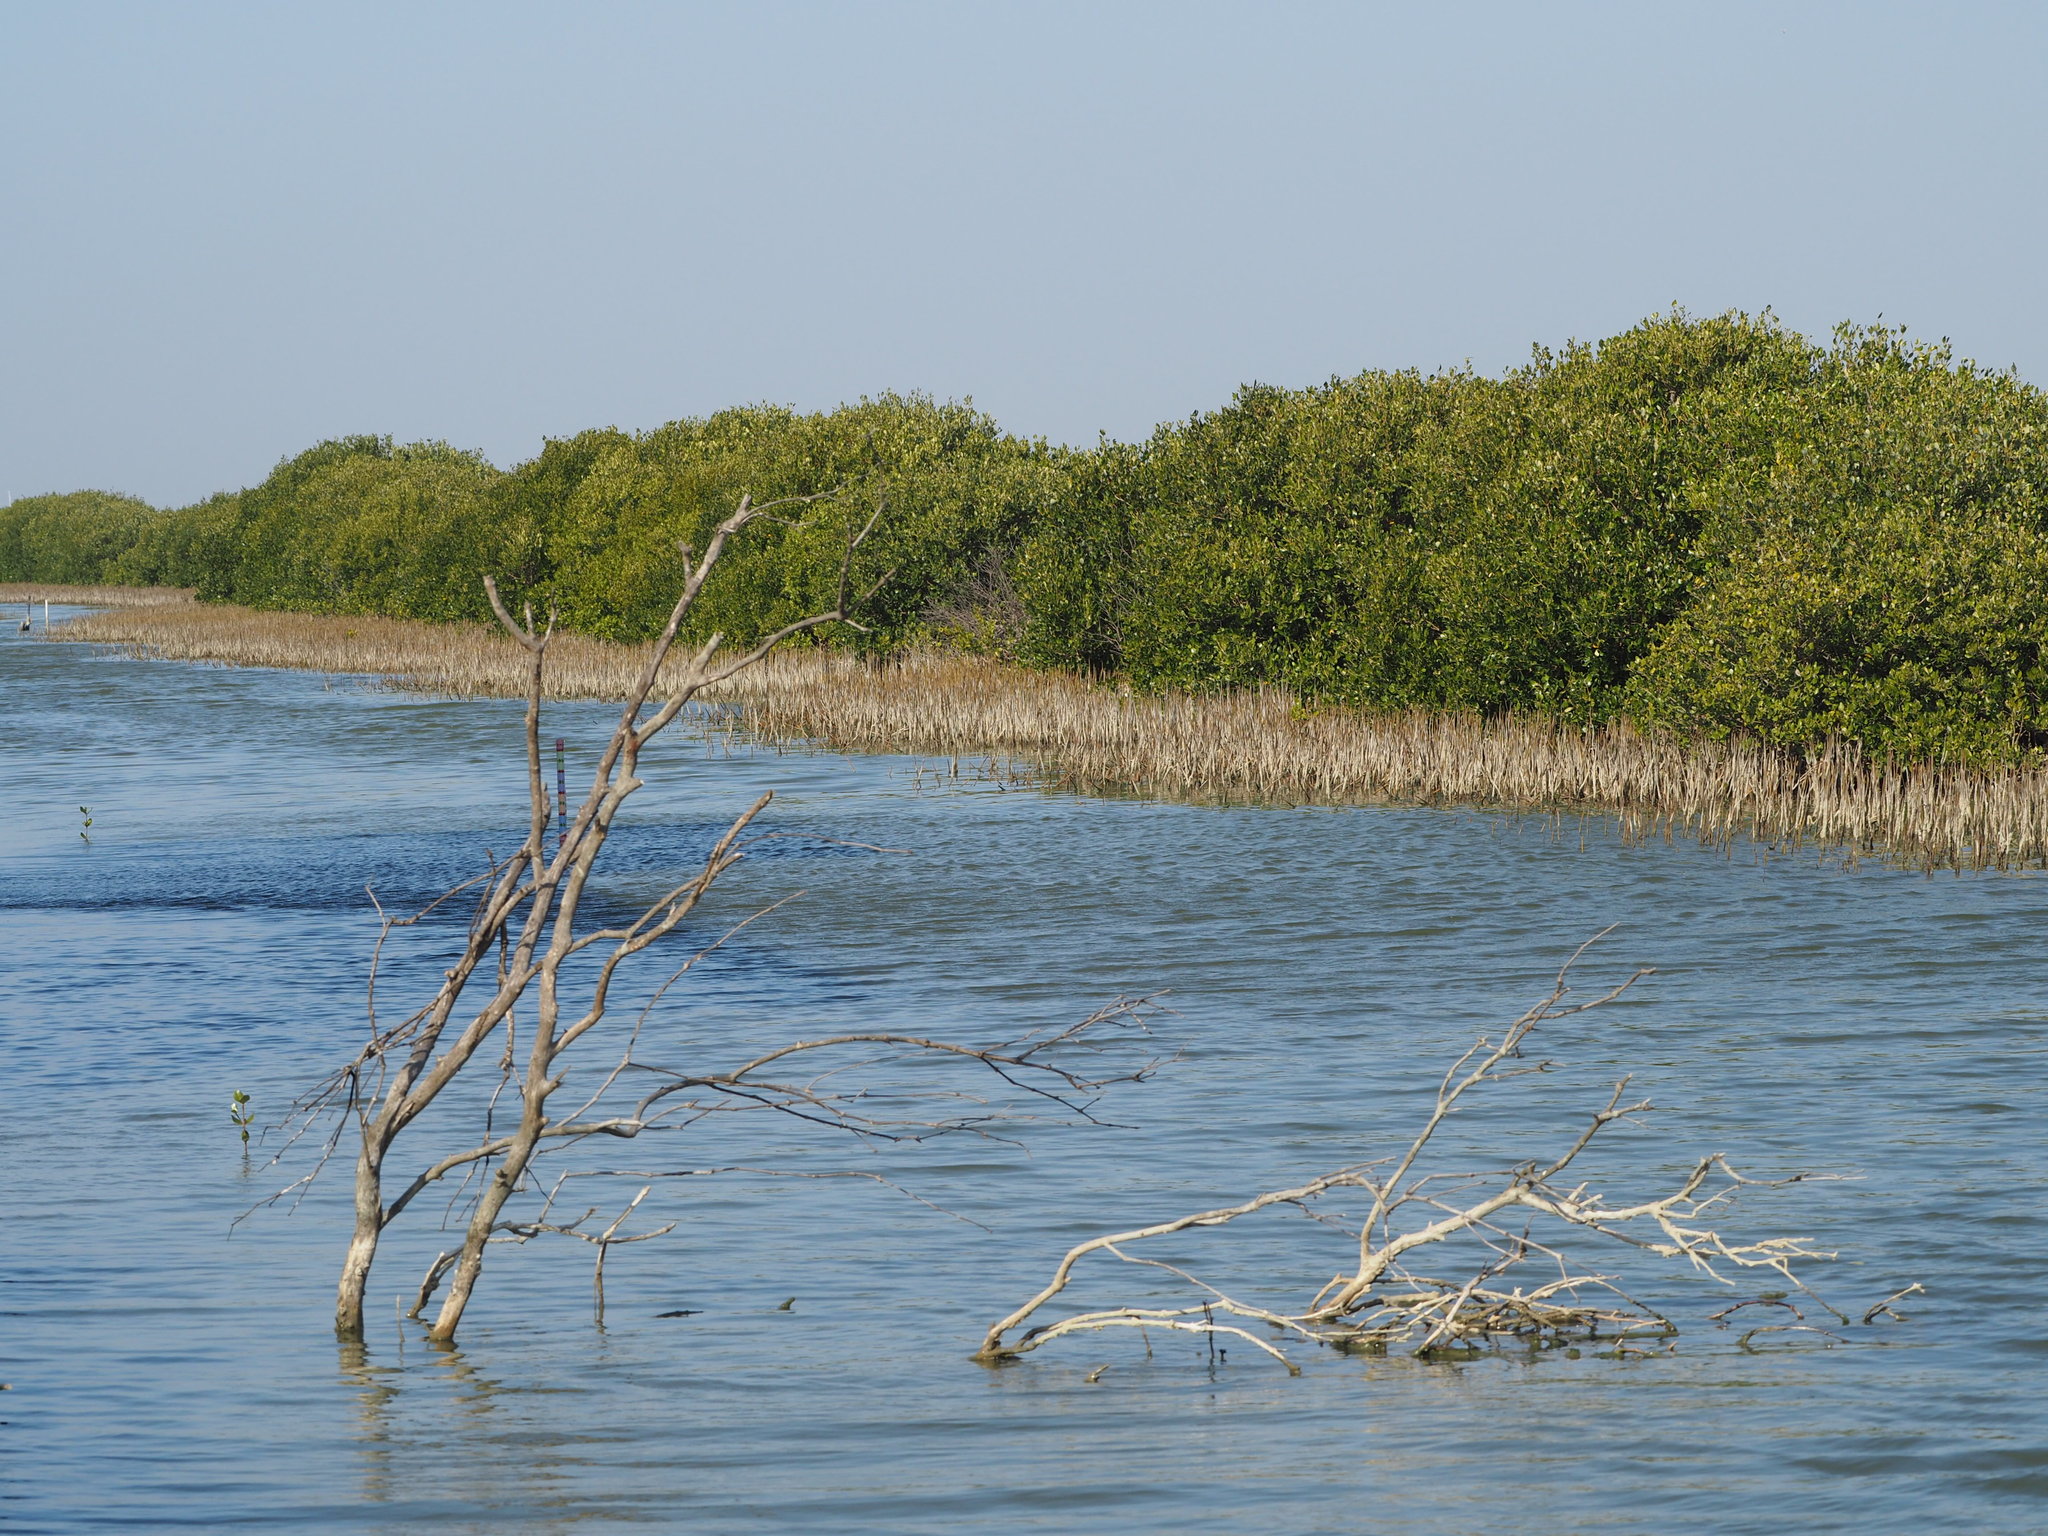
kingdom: Plantae
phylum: Tracheophyta
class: Magnoliopsida
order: Lamiales
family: Acanthaceae
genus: Avicennia
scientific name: Avicennia marina
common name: Gray mangrove
